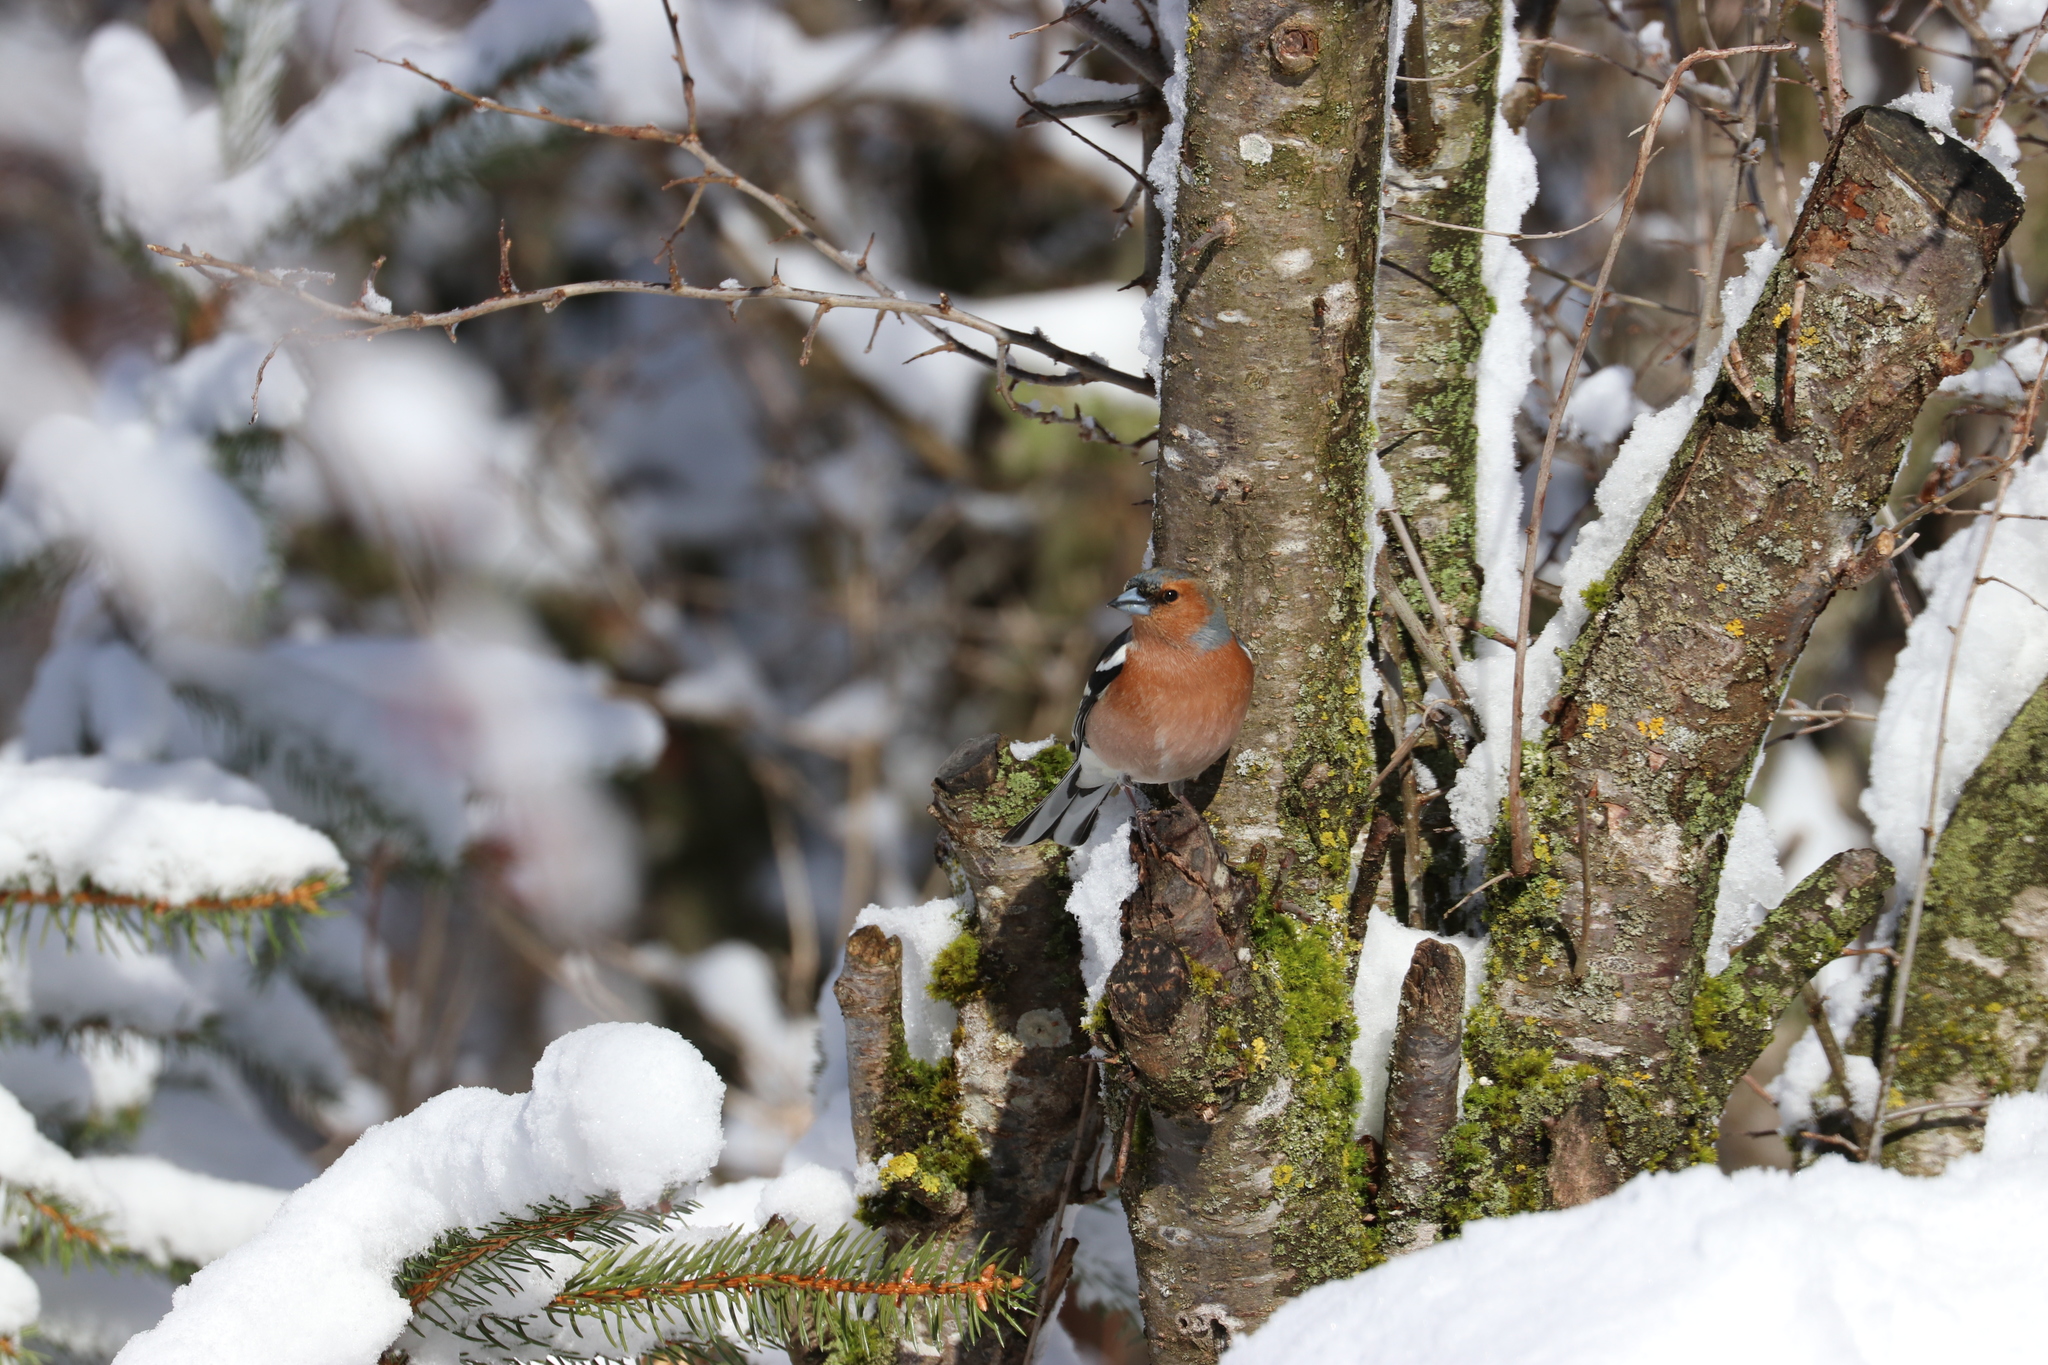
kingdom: Animalia
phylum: Chordata
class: Aves
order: Passeriformes
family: Fringillidae
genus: Fringilla
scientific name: Fringilla coelebs
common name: Common chaffinch
